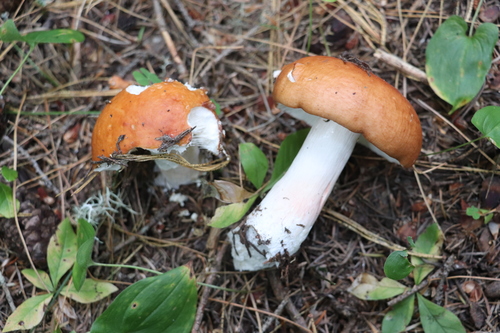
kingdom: Fungi
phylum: Basidiomycota
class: Agaricomycetes
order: Russulales
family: Russulaceae
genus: Russula
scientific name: Russula
